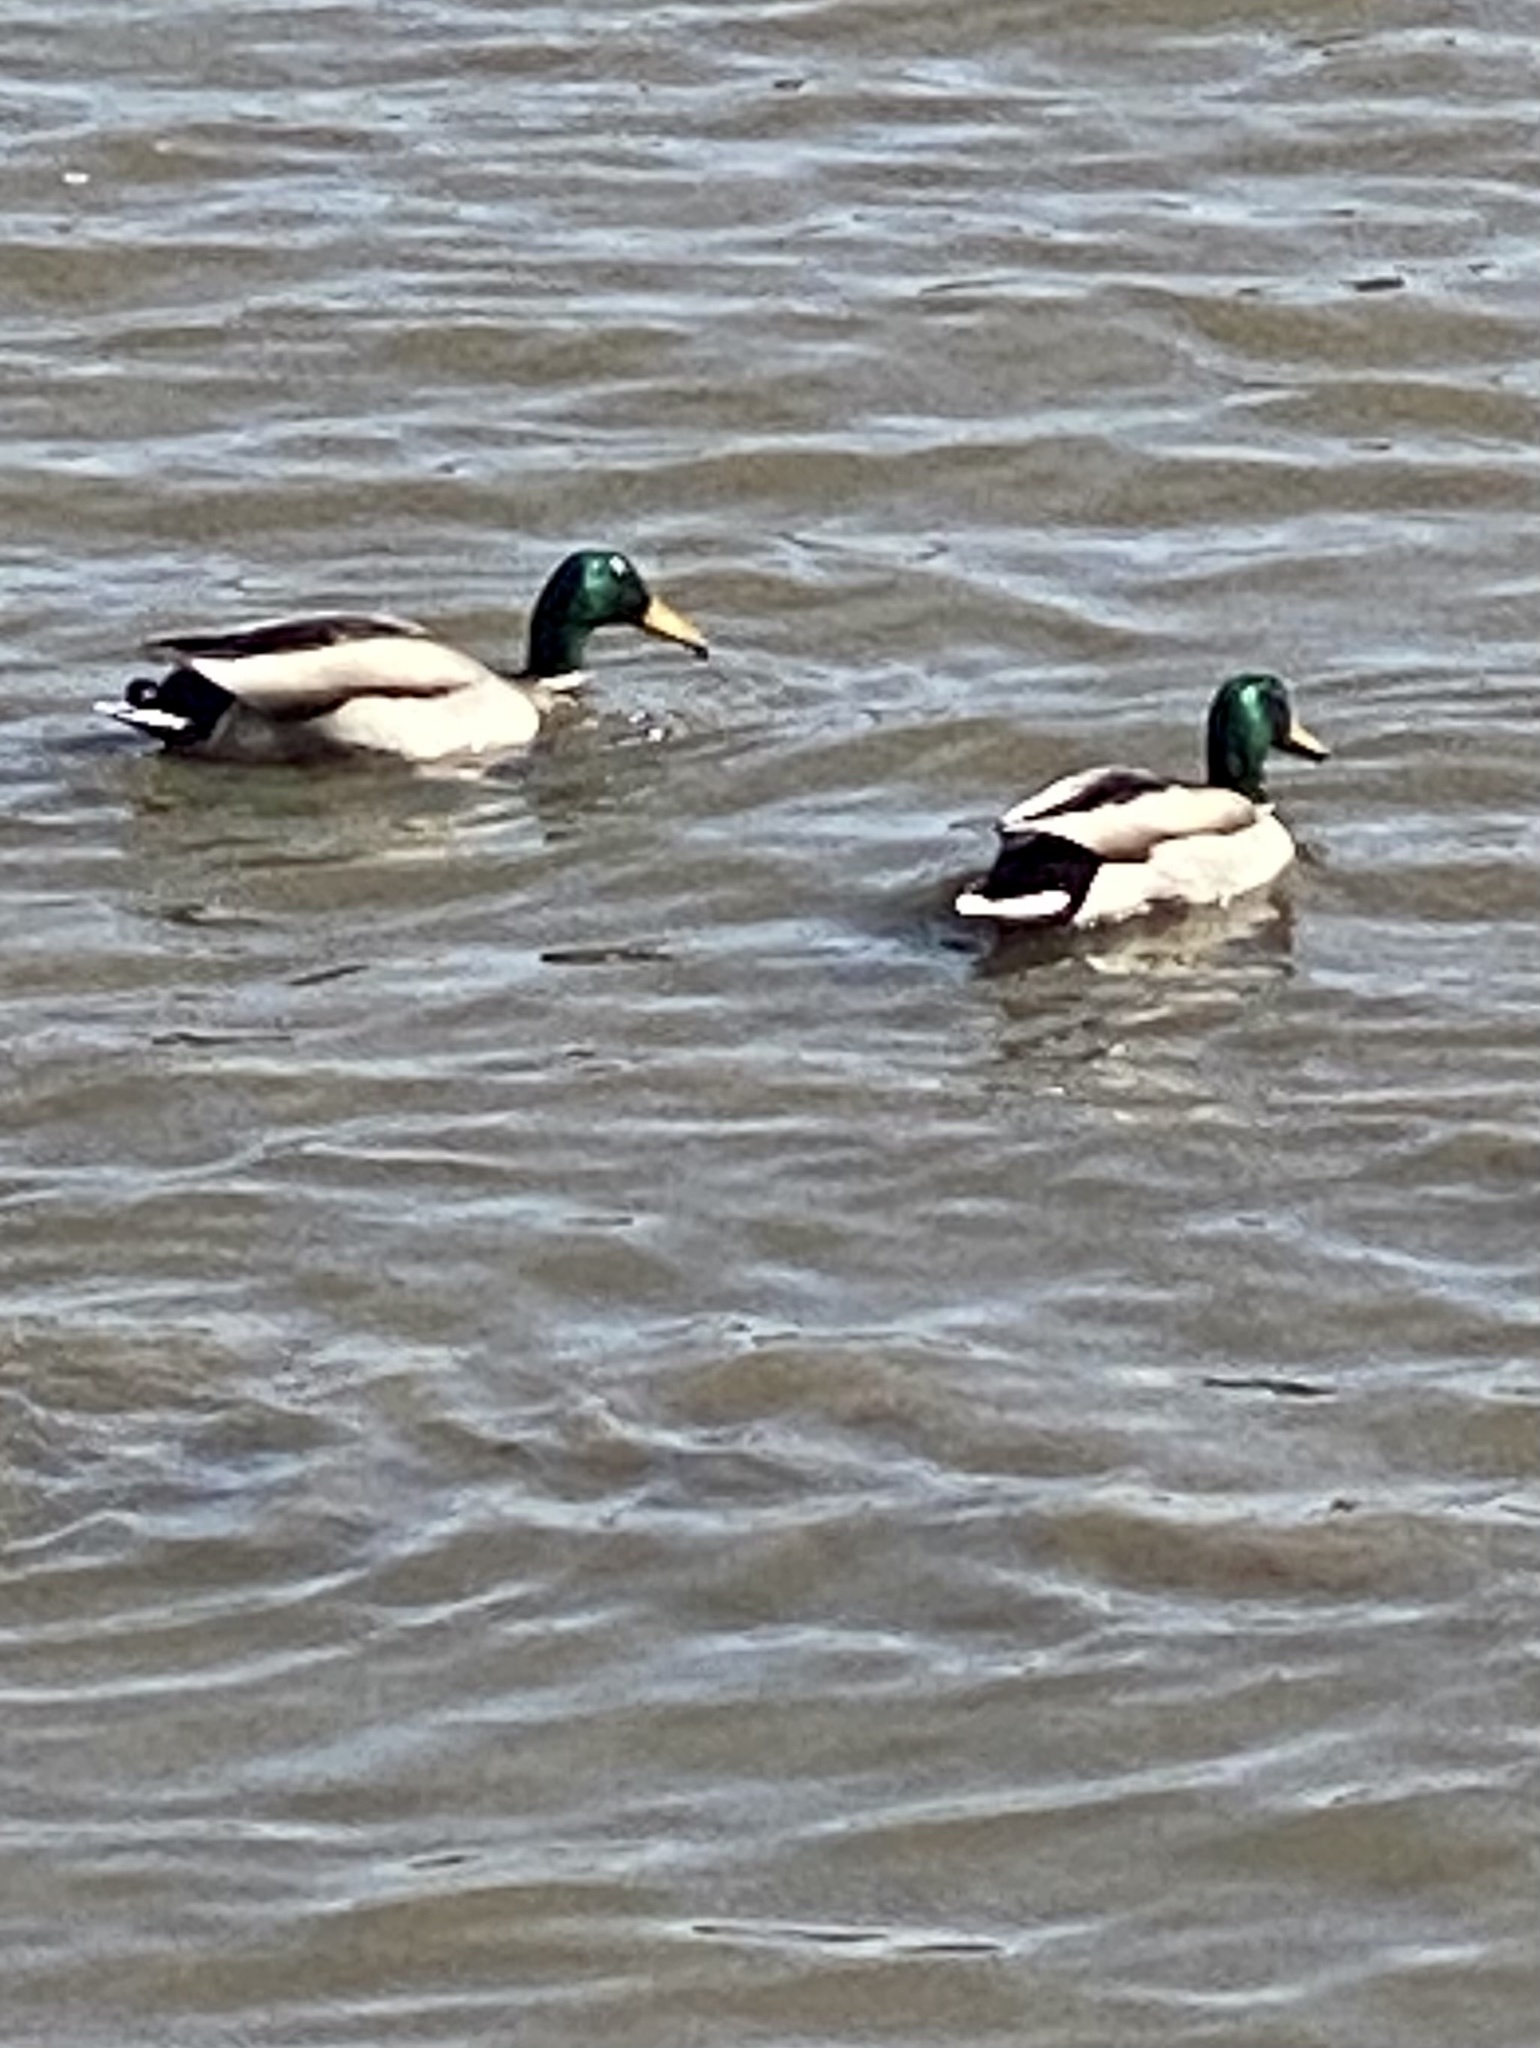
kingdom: Animalia
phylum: Chordata
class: Aves
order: Anseriformes
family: Anatidae
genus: Anas
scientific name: Anas platyrhynchos
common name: Mallard
